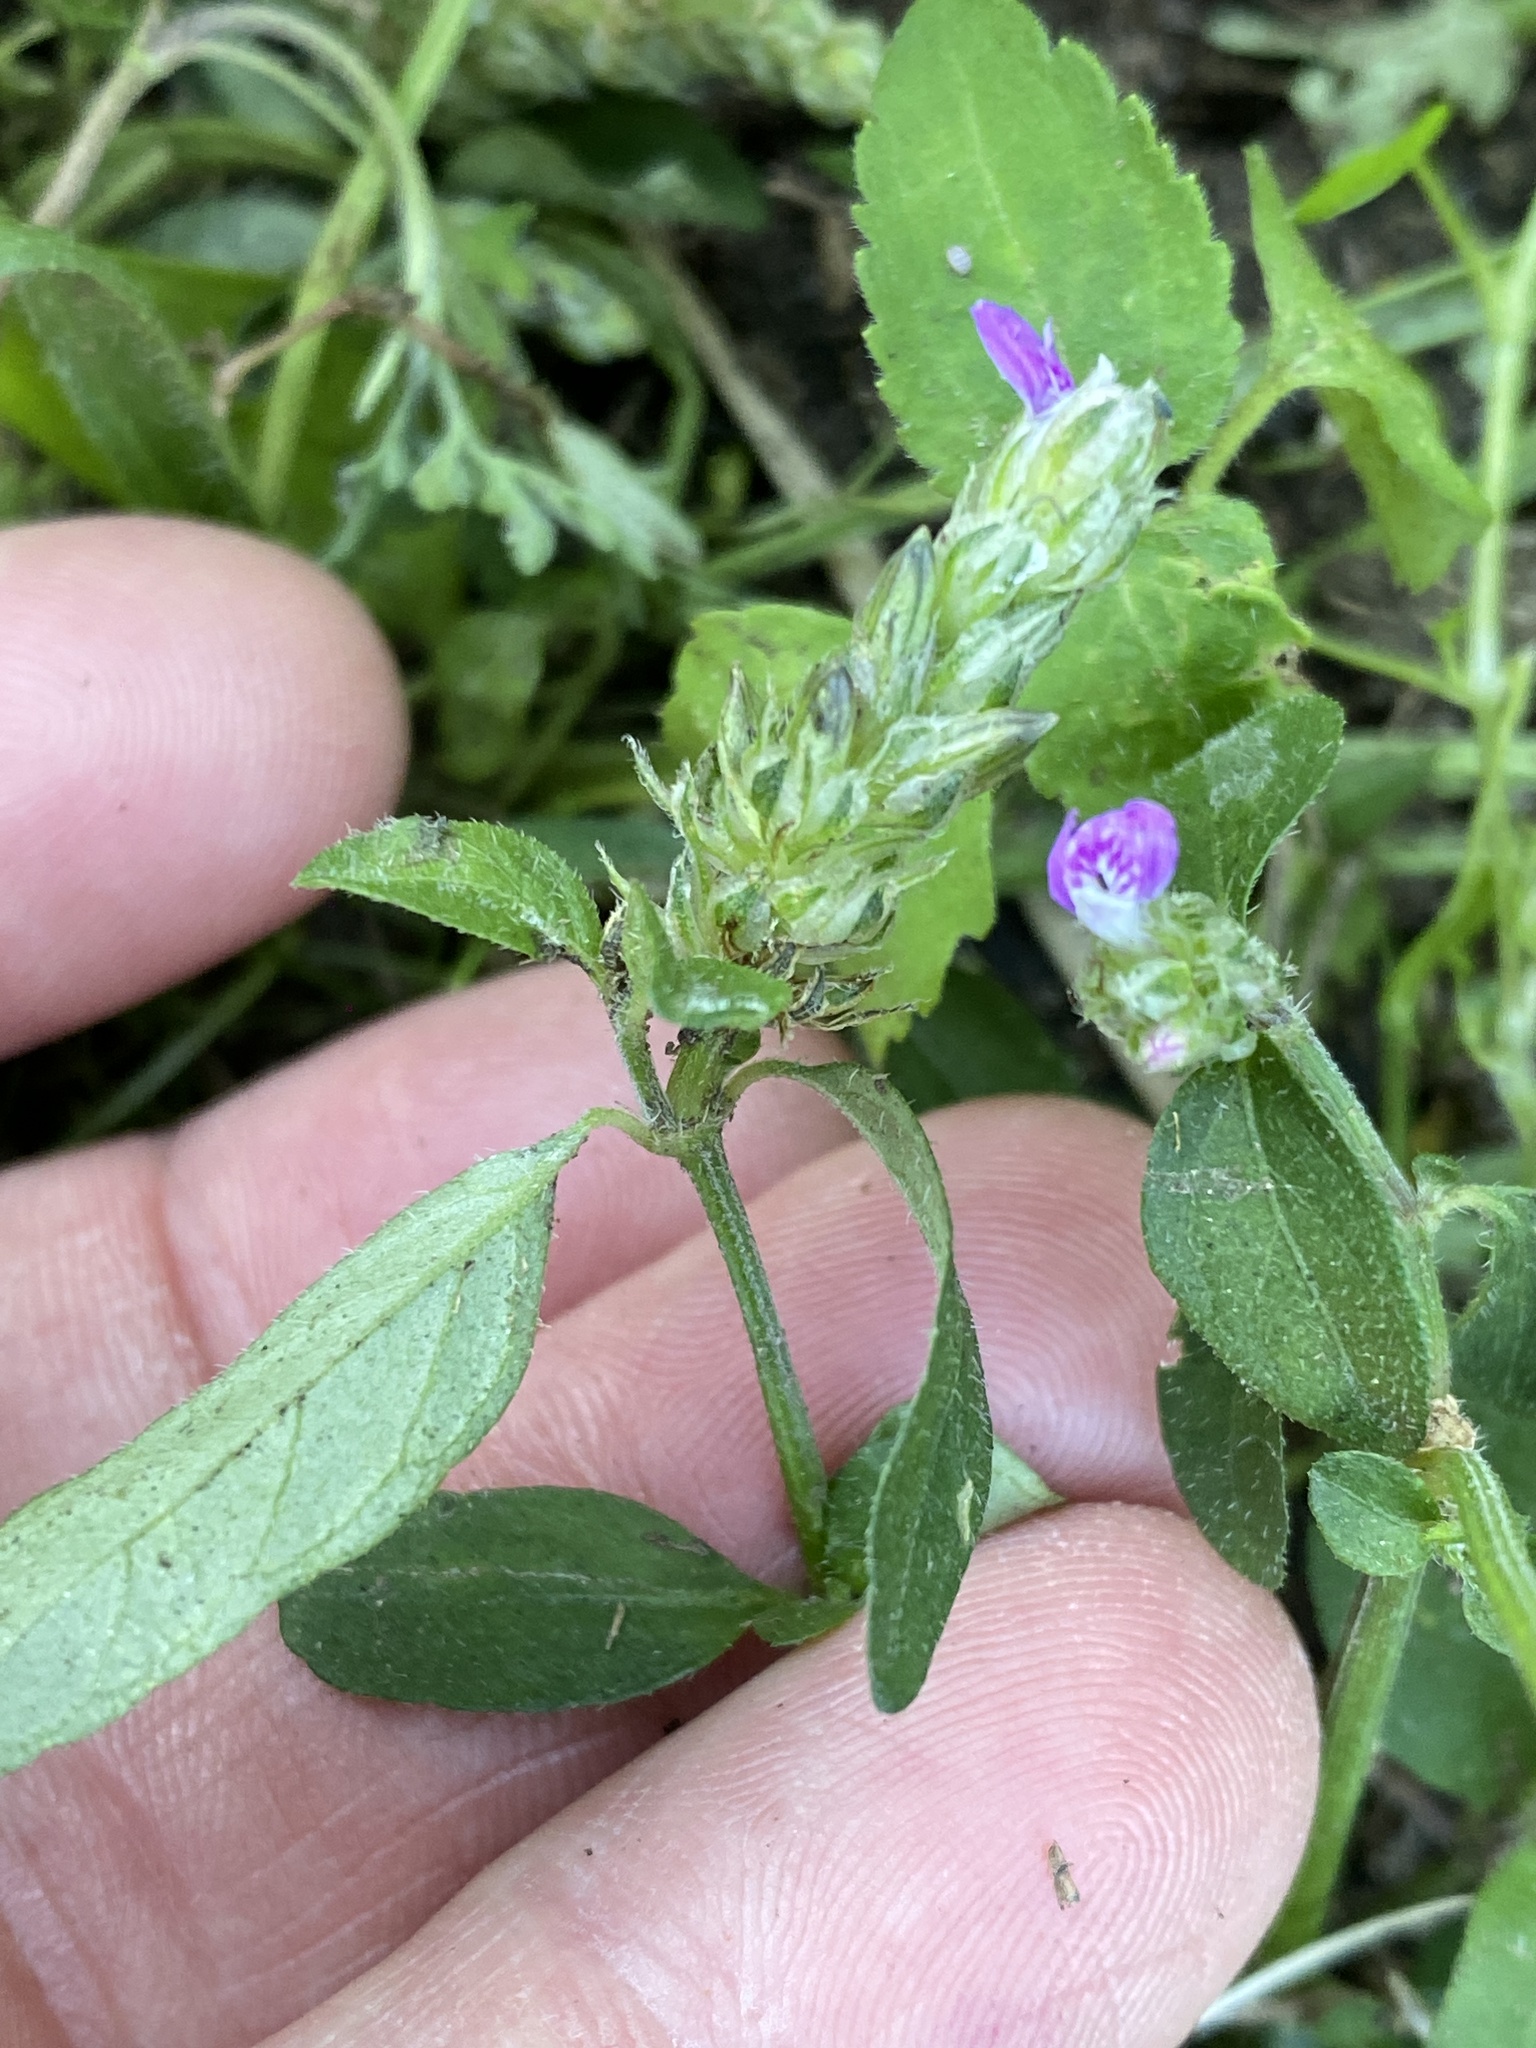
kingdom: Plantae
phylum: Tracheophyta
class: Magnoliopsida
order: Lamiales
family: Acanthaceae
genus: Rostellularia
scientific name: Rostellularia obtusa
